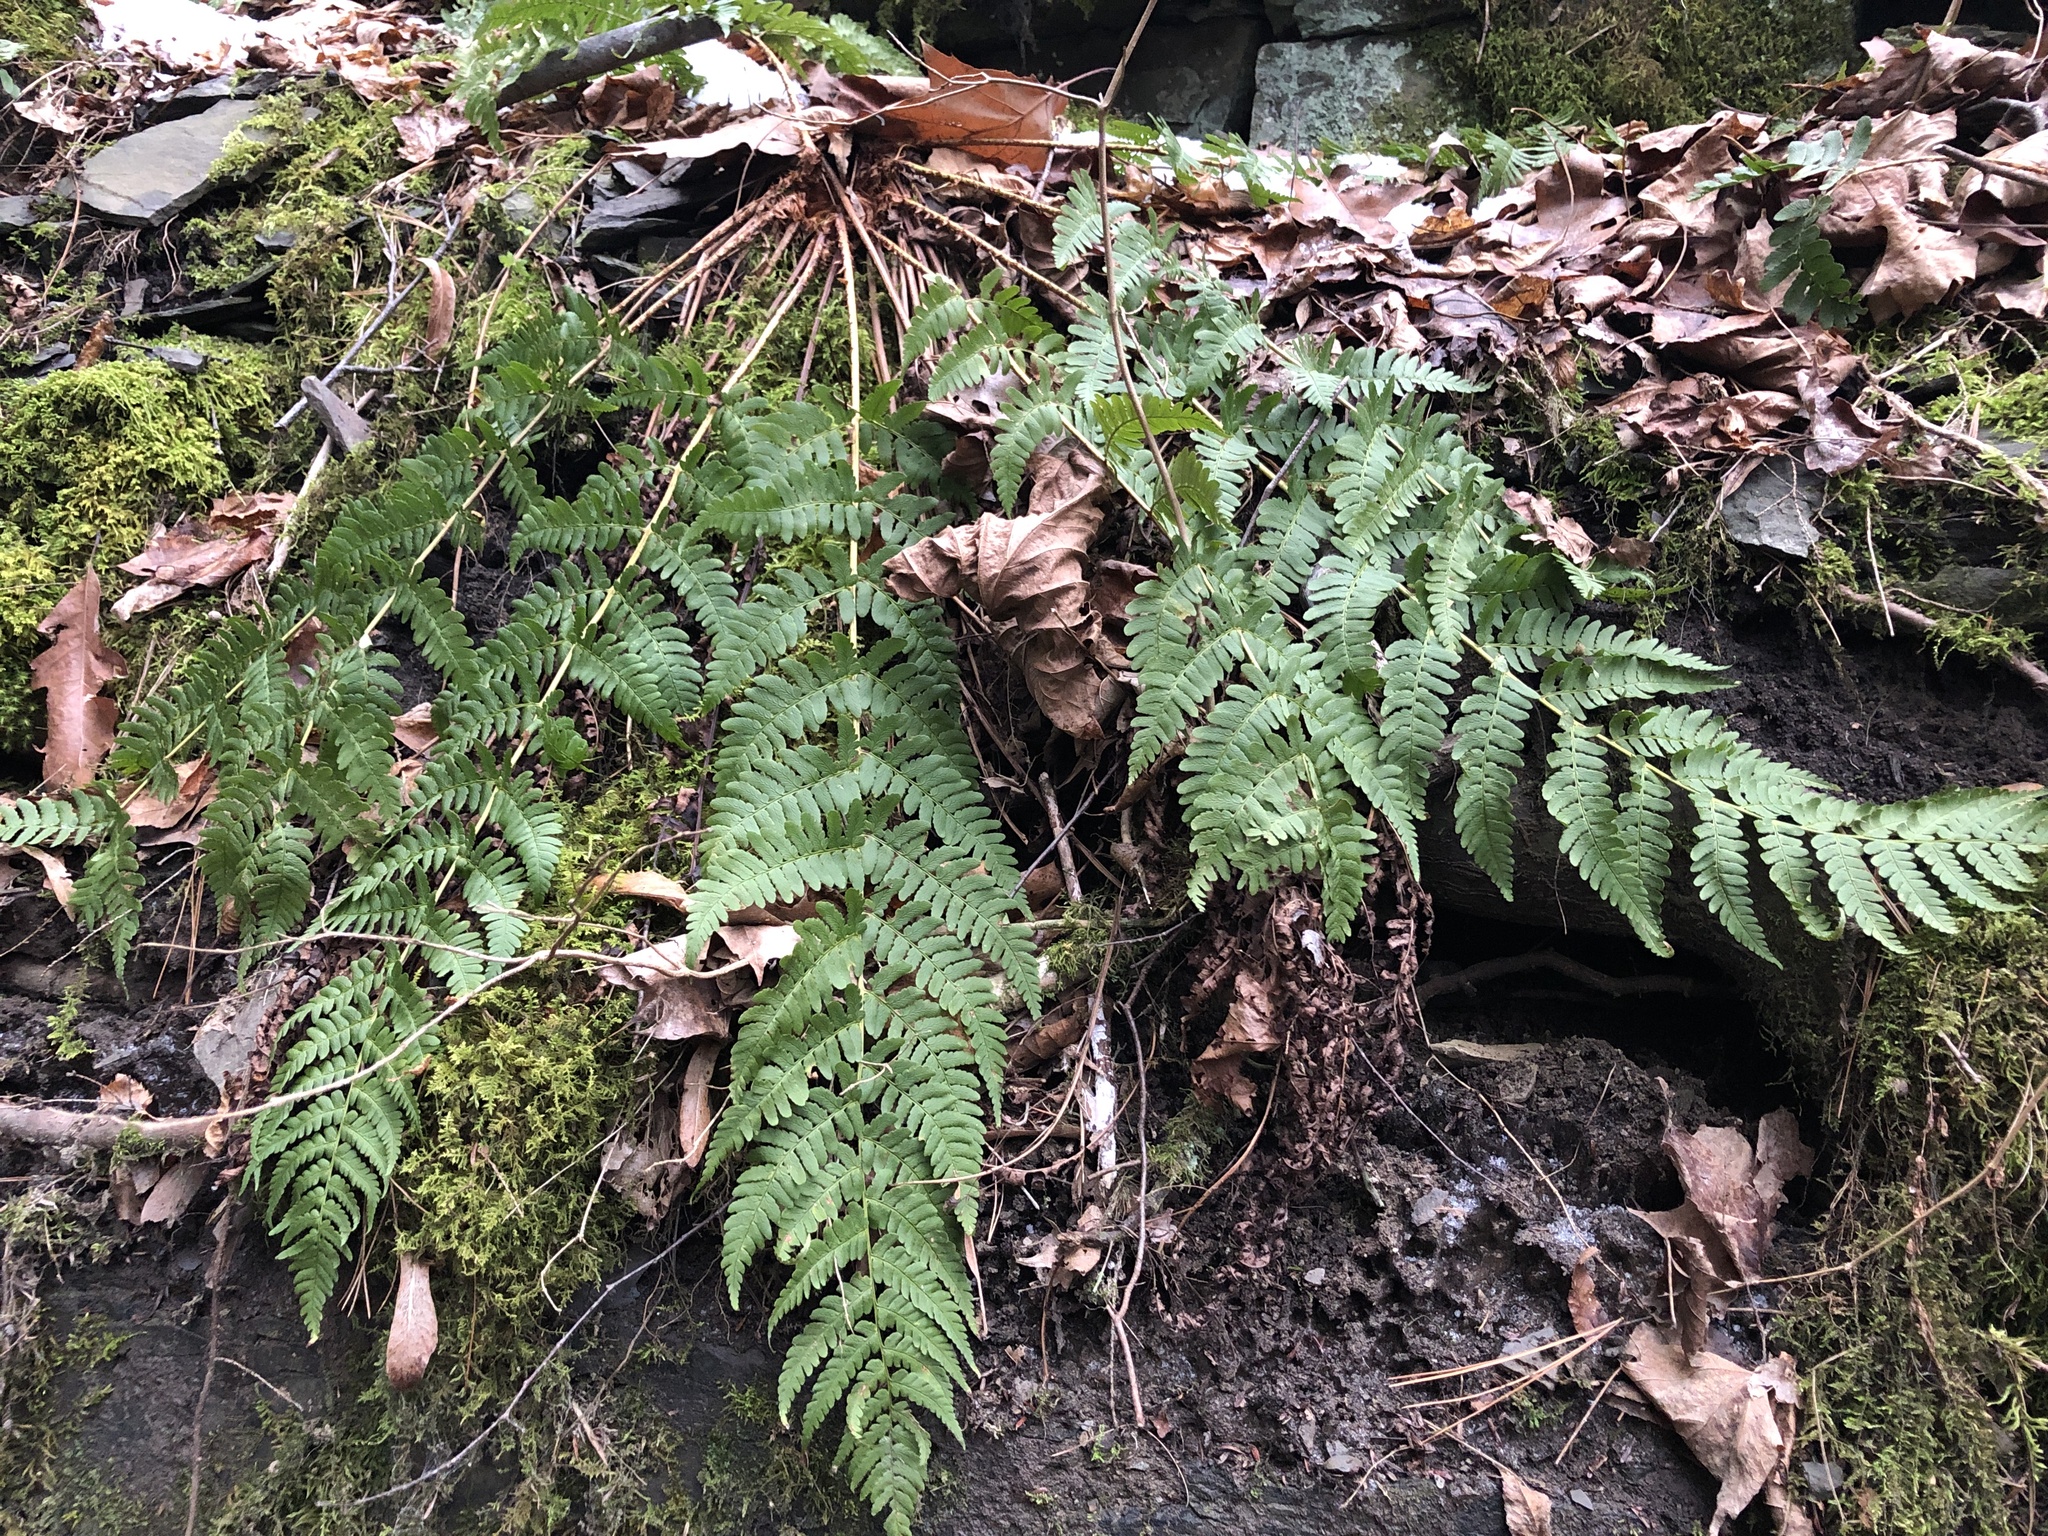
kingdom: Plantae
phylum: Tracheophyta
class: Polypodiopsida
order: Polypodiales
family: Dryopteridaceae
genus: Dryopteris
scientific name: Dryopteris marginalis
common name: Marginal wood fern
